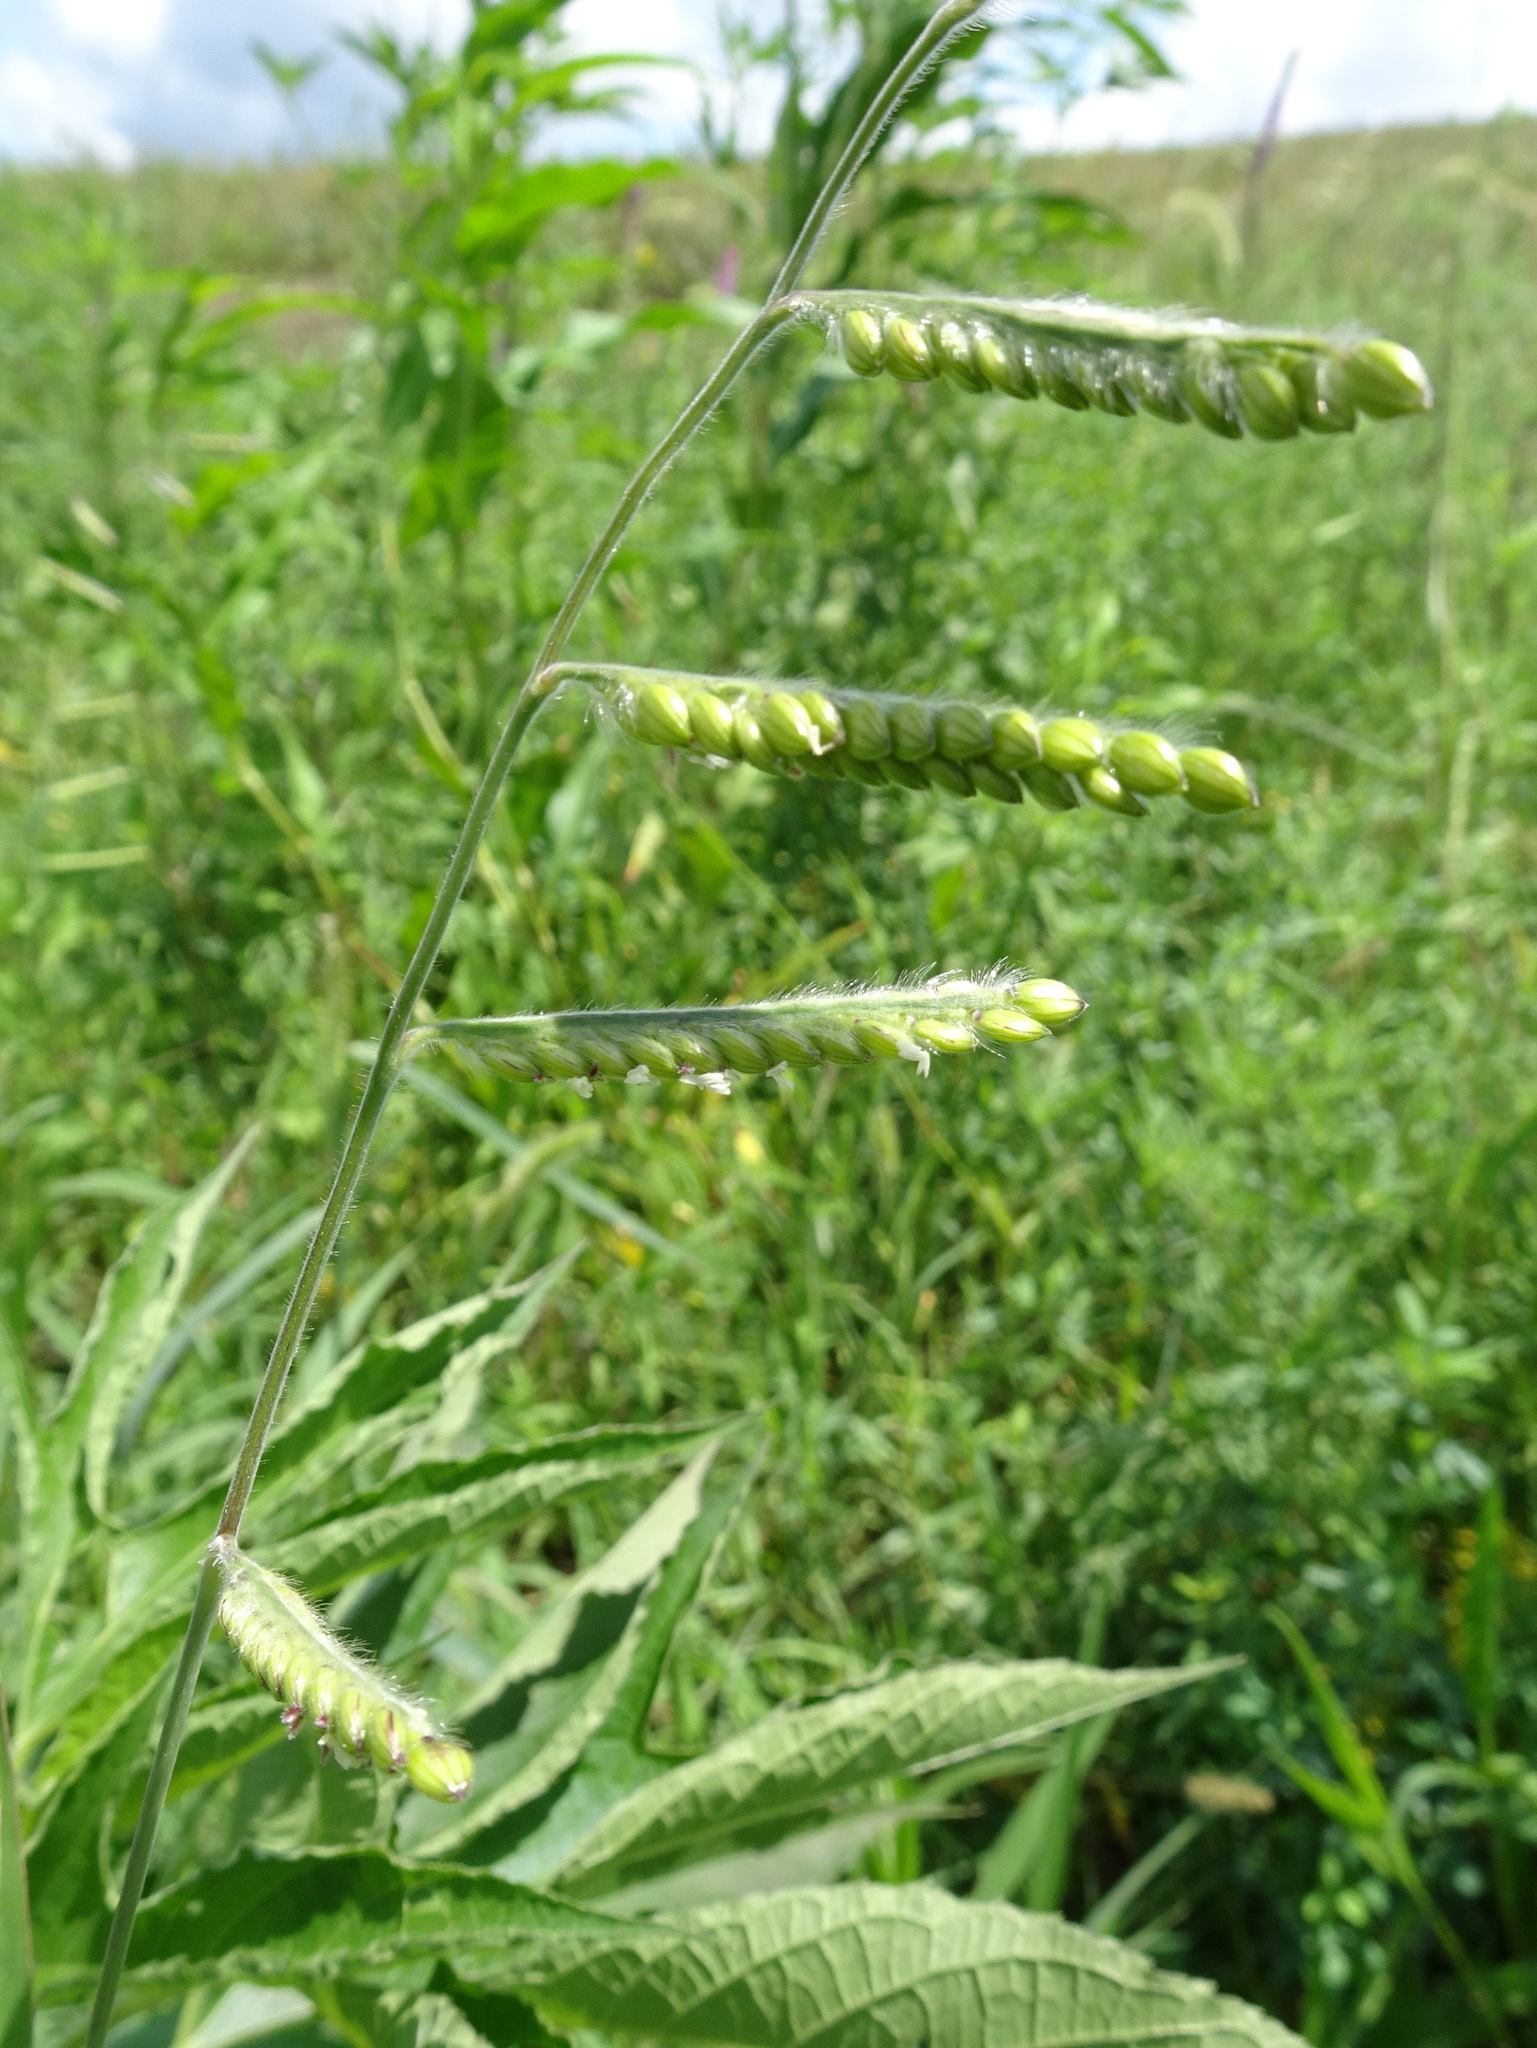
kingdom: Plantae
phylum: Tracheophyta
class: Liliopsida
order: Poales
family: Poaceae
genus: Eriochloa
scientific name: Eriochloa villosa
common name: Hairy cupgrass
